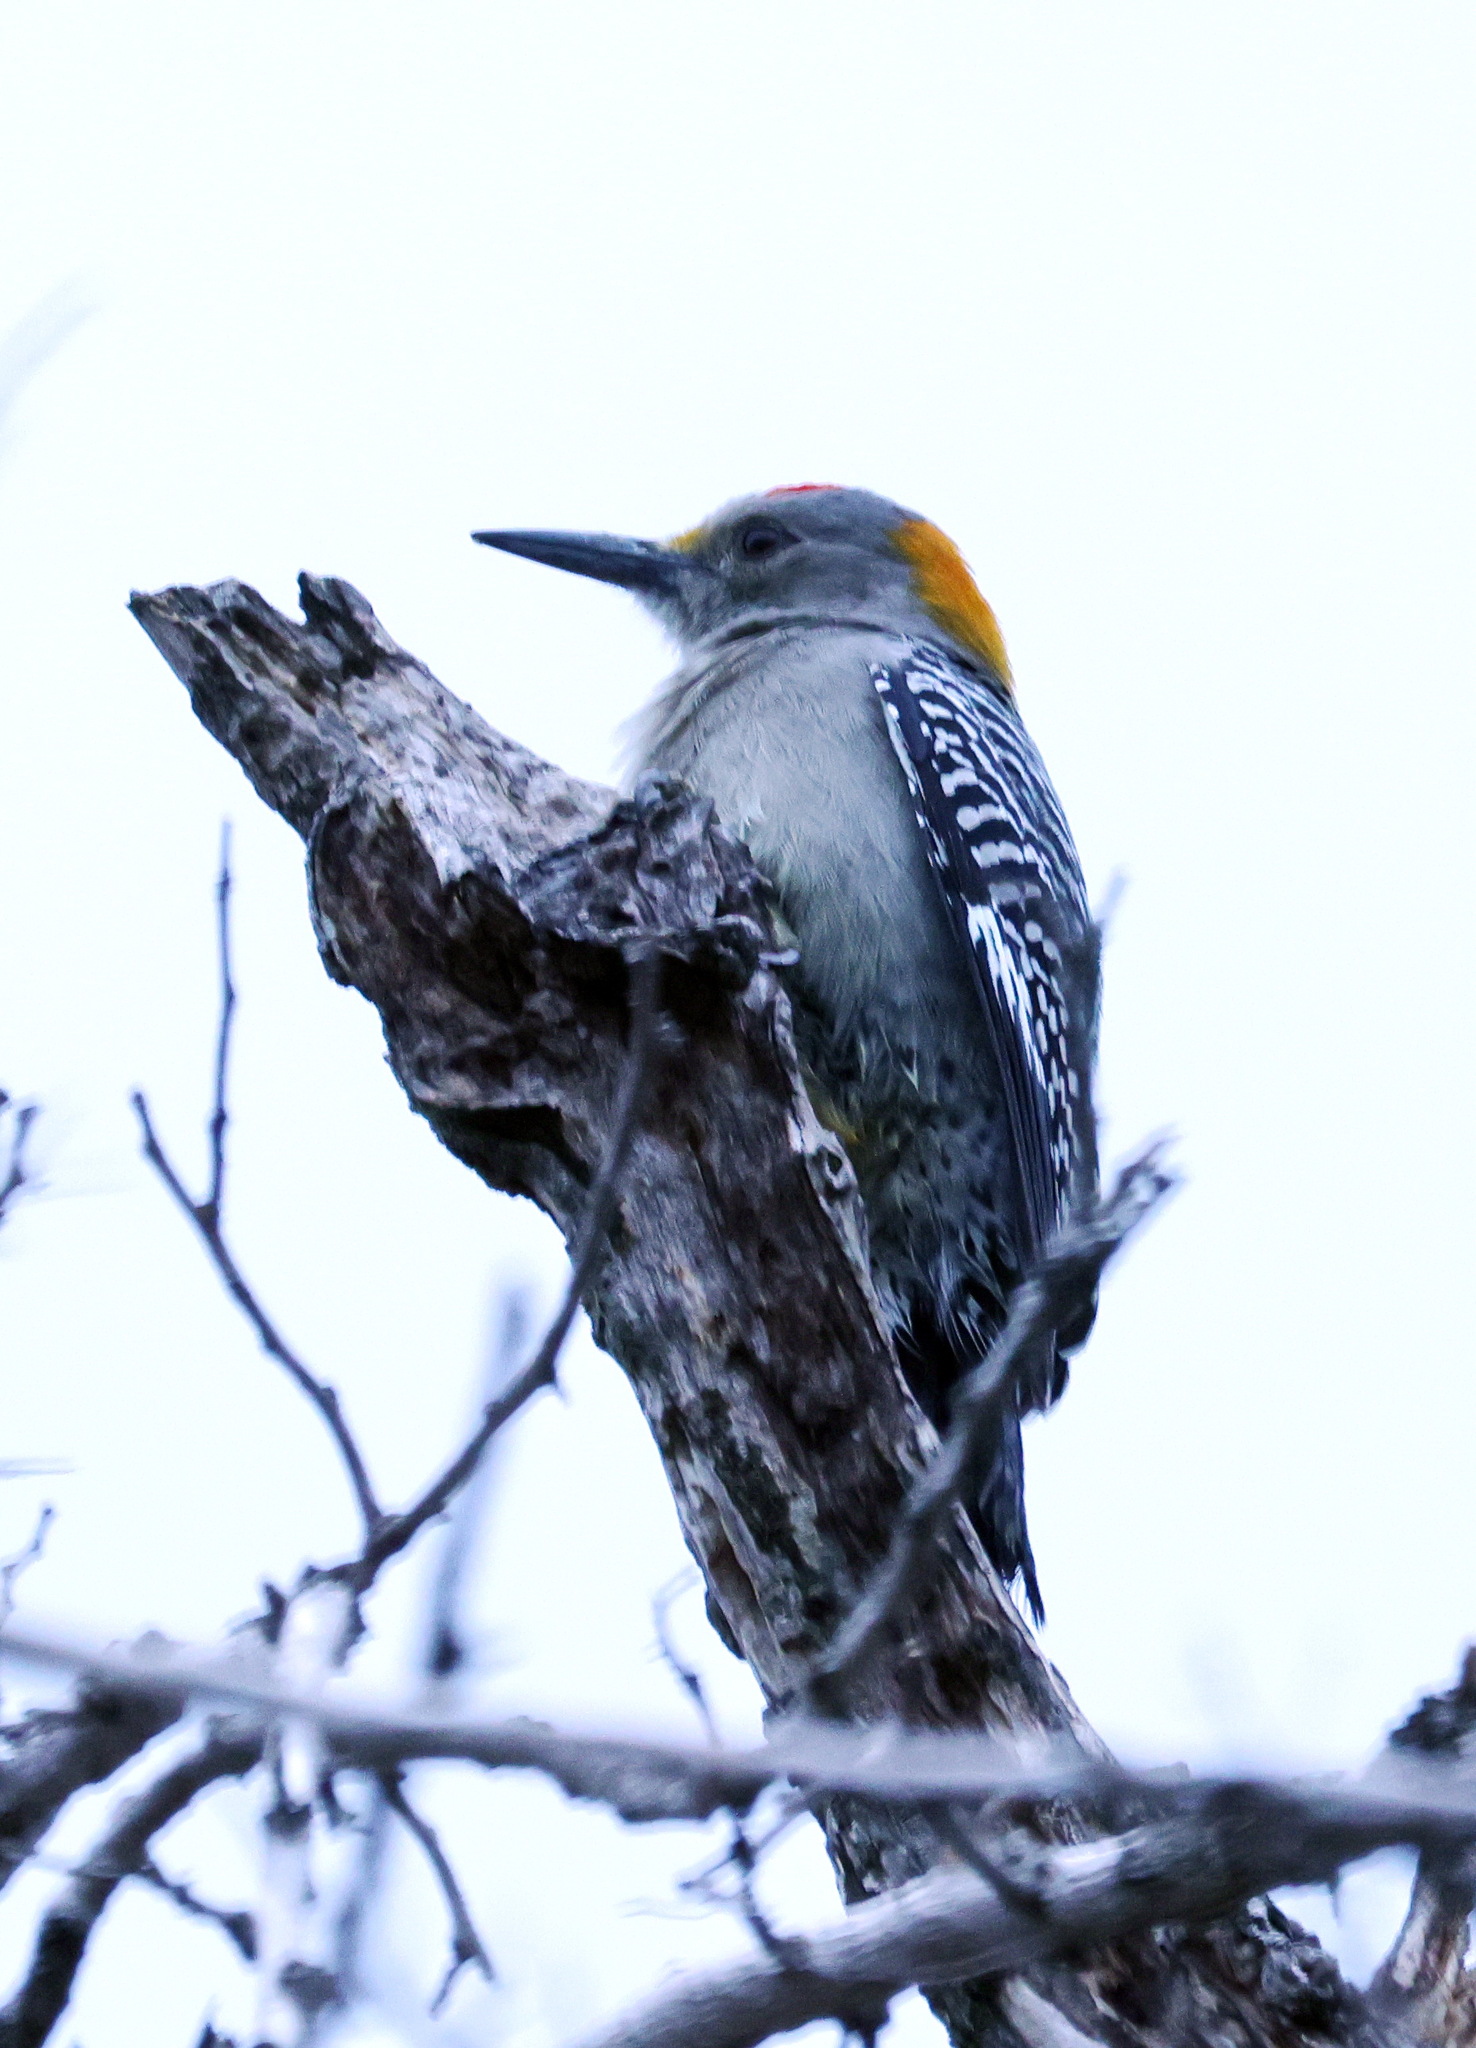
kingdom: Animalia
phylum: Chordata
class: Aves
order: Piciformes
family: Picidae
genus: Melanerpes
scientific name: Melanerpes aurifrons
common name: Golden-fronted woodpecker
